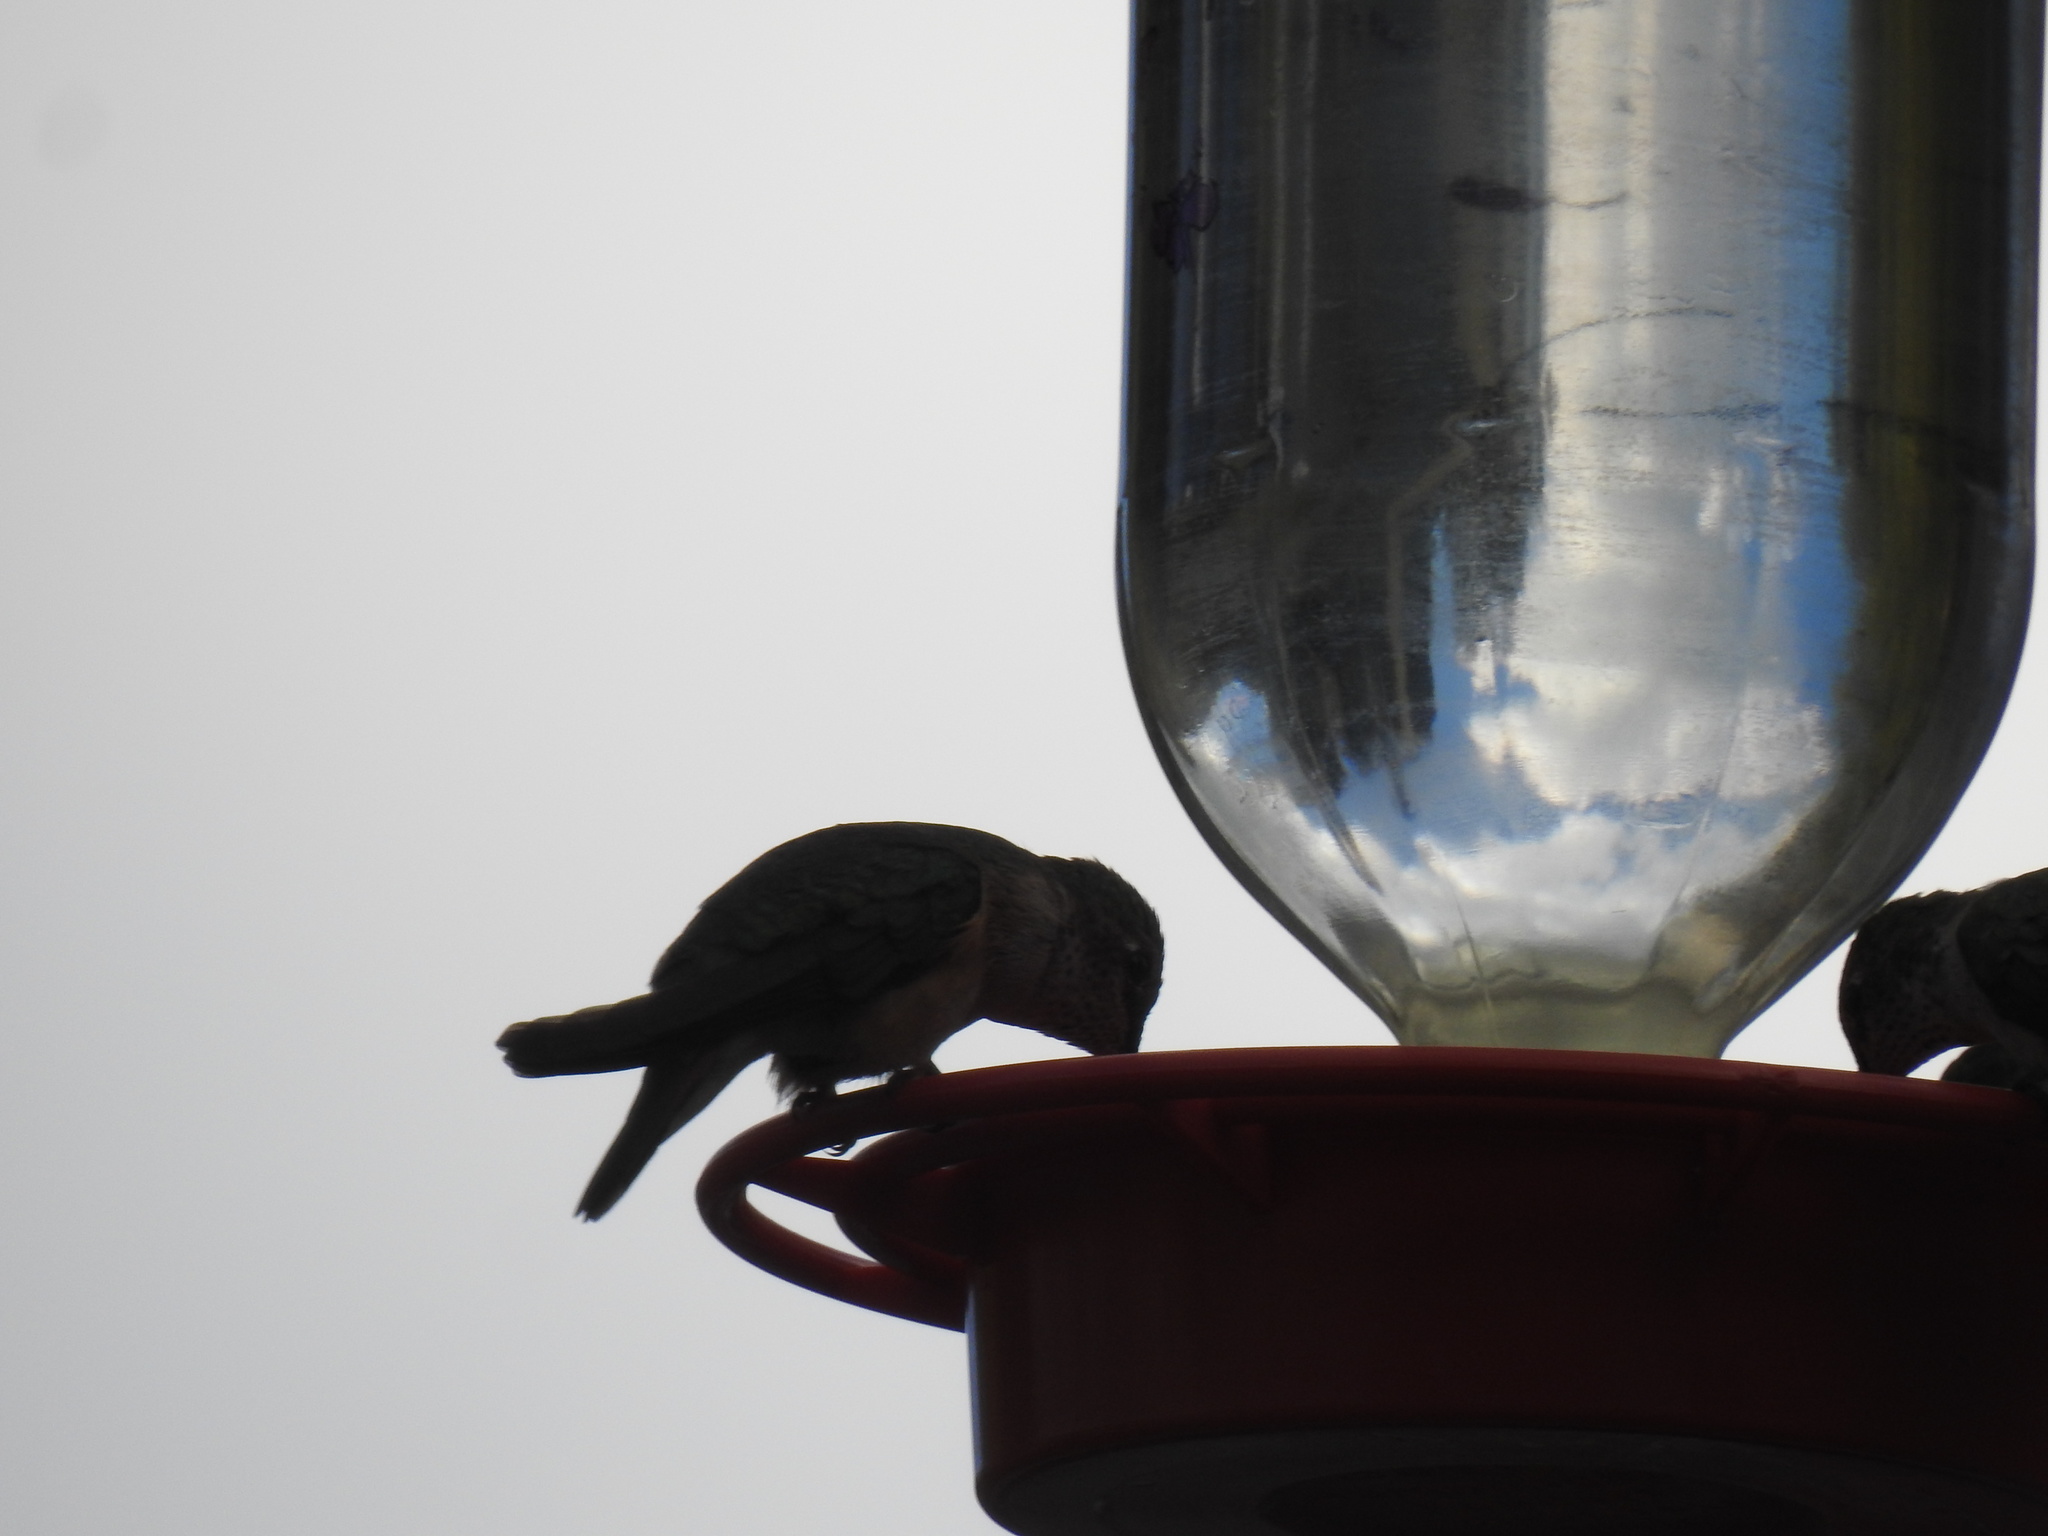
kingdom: Animalia
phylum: Chordata
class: Aves
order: Apodiformes
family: Trochilidae
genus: Selasphorus
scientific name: Selasphorus platycercus
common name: Broad-tailed hummingbird
